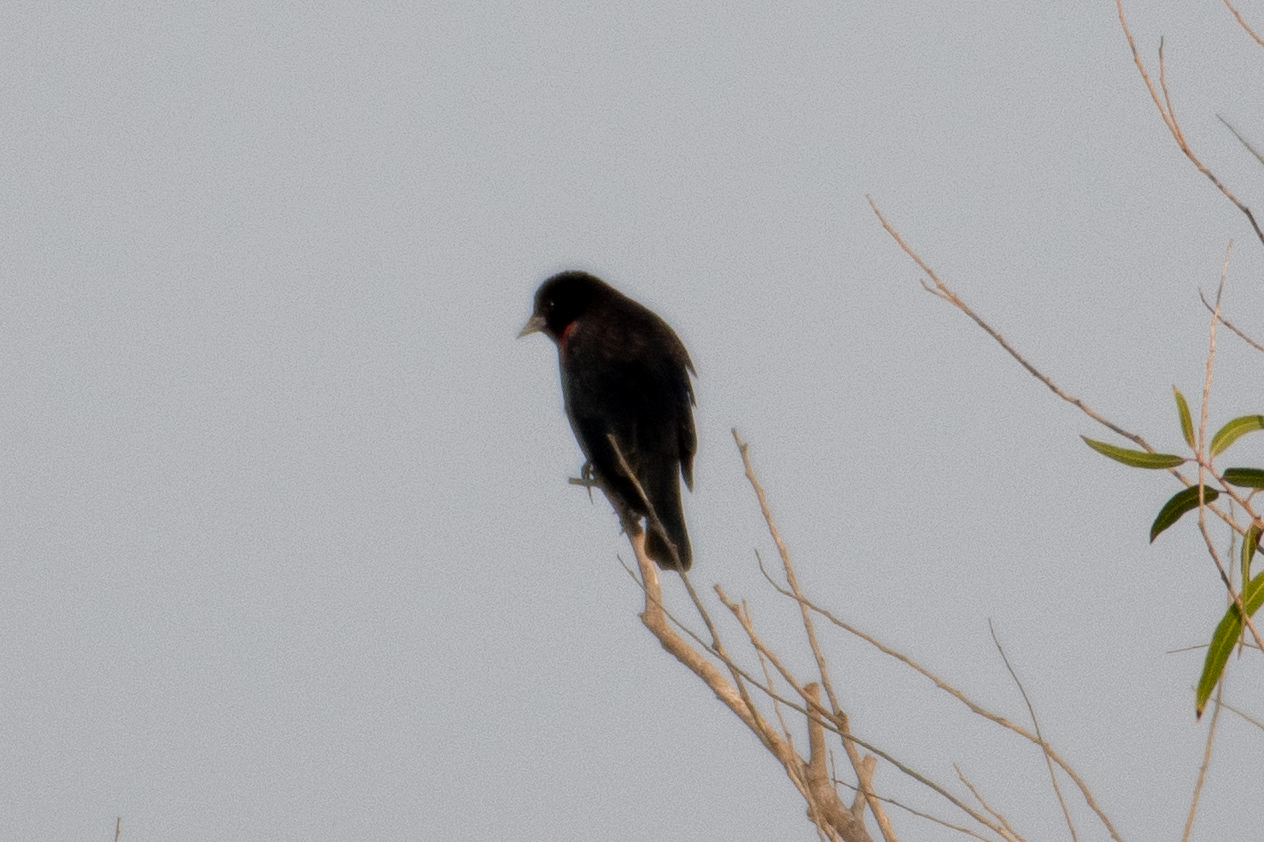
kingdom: Animalia
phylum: Chordata
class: Aves
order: Passeriformes
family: Icteridae
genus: Agelaius
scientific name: Agelaius phoeniceus
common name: Red-winged blackbird
